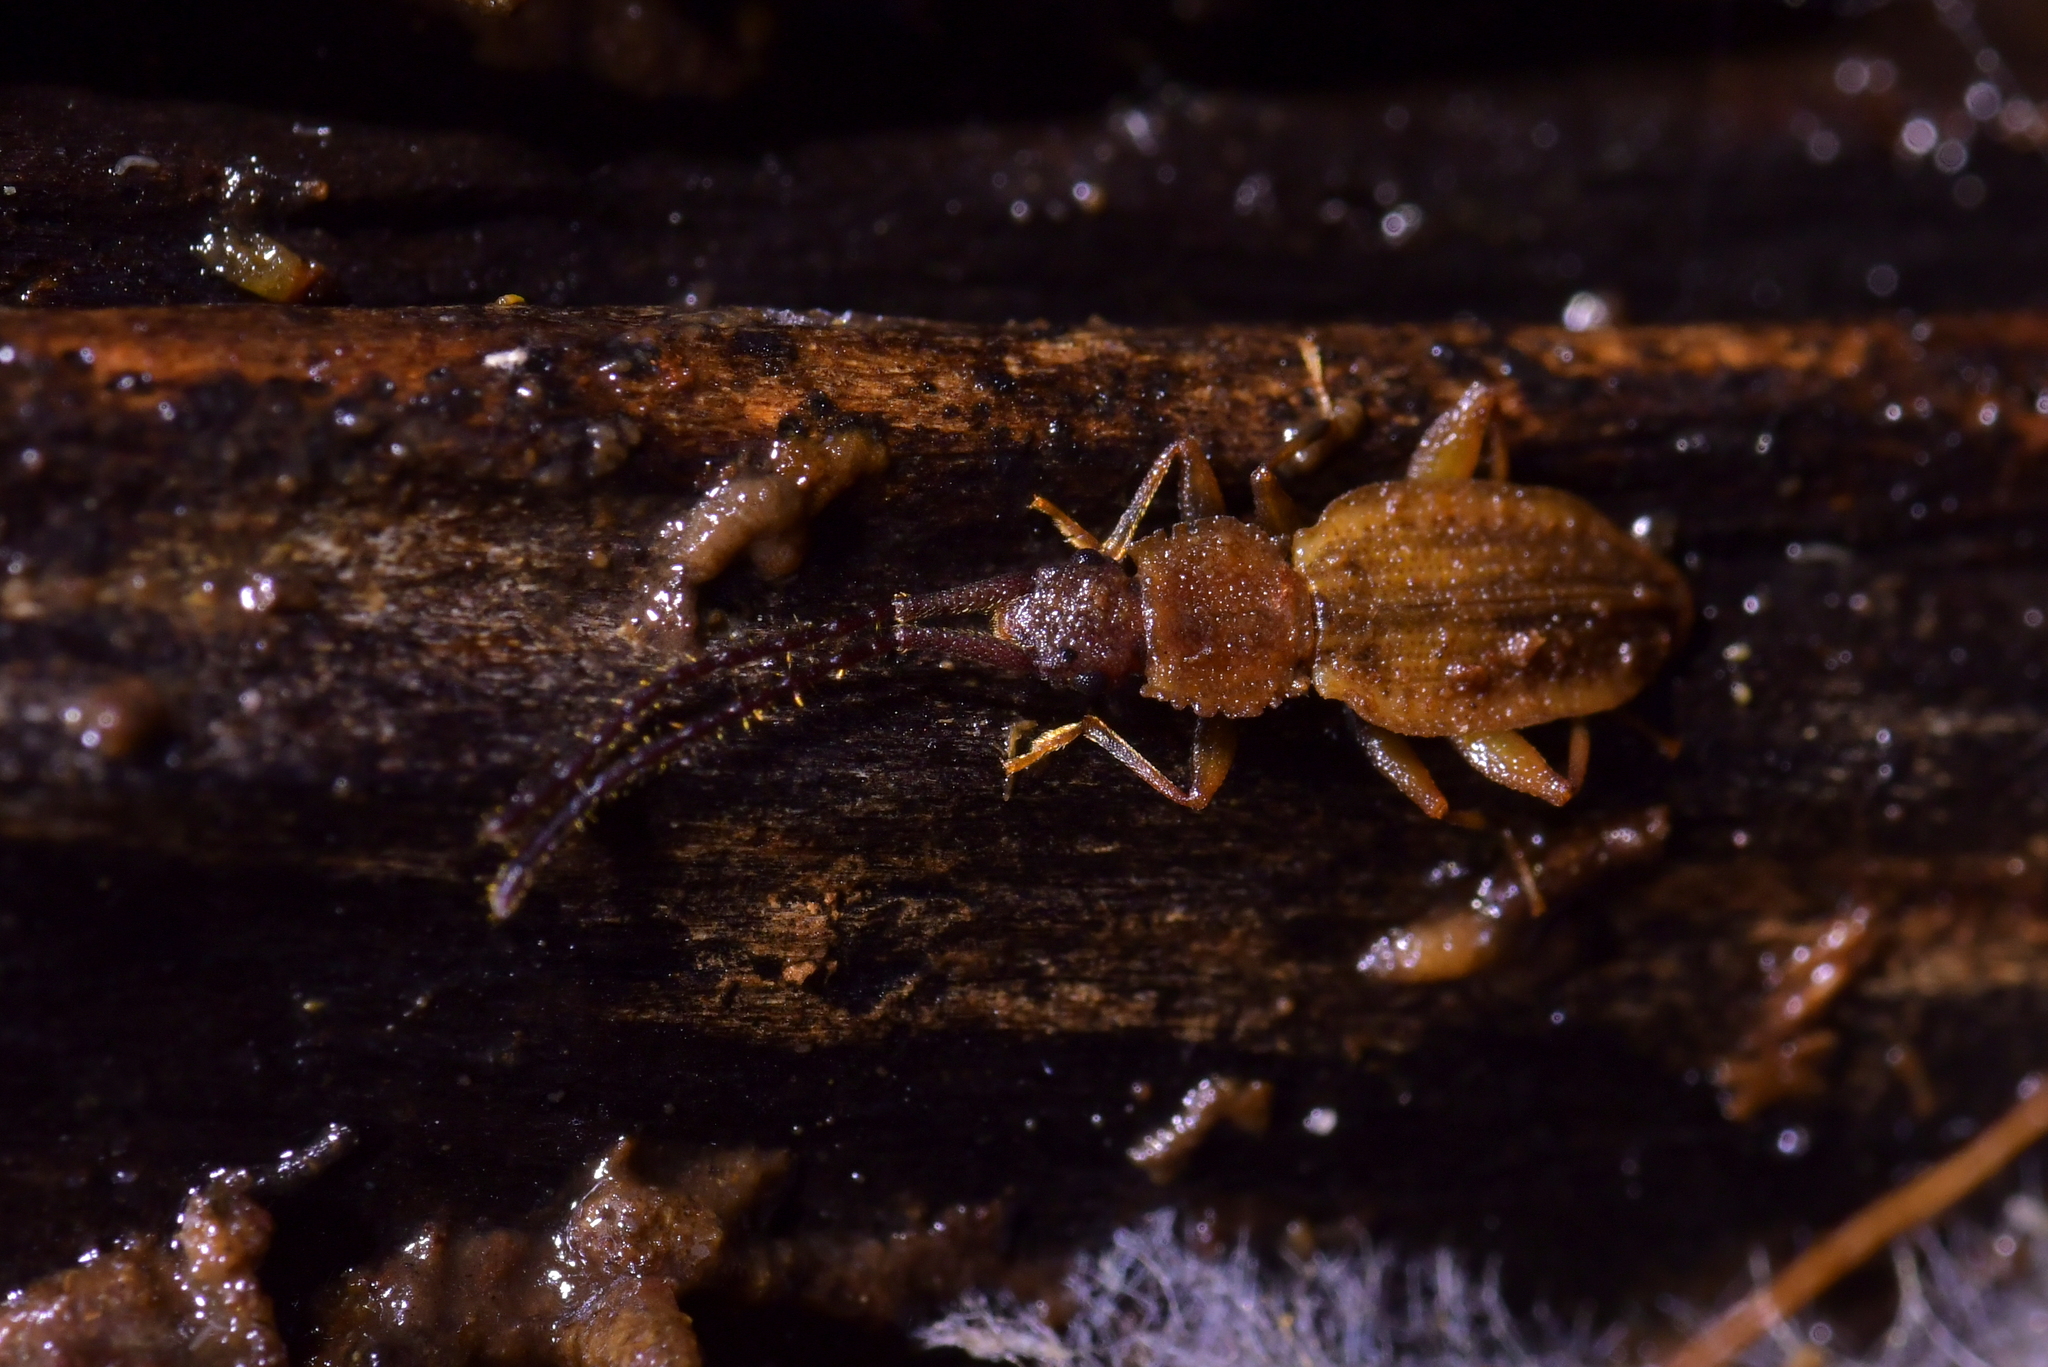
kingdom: Animalia
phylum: Arthropoda
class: Insecta
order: Coleoptera
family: Silvanidae
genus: Brontopriscus
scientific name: Brontopriscus
